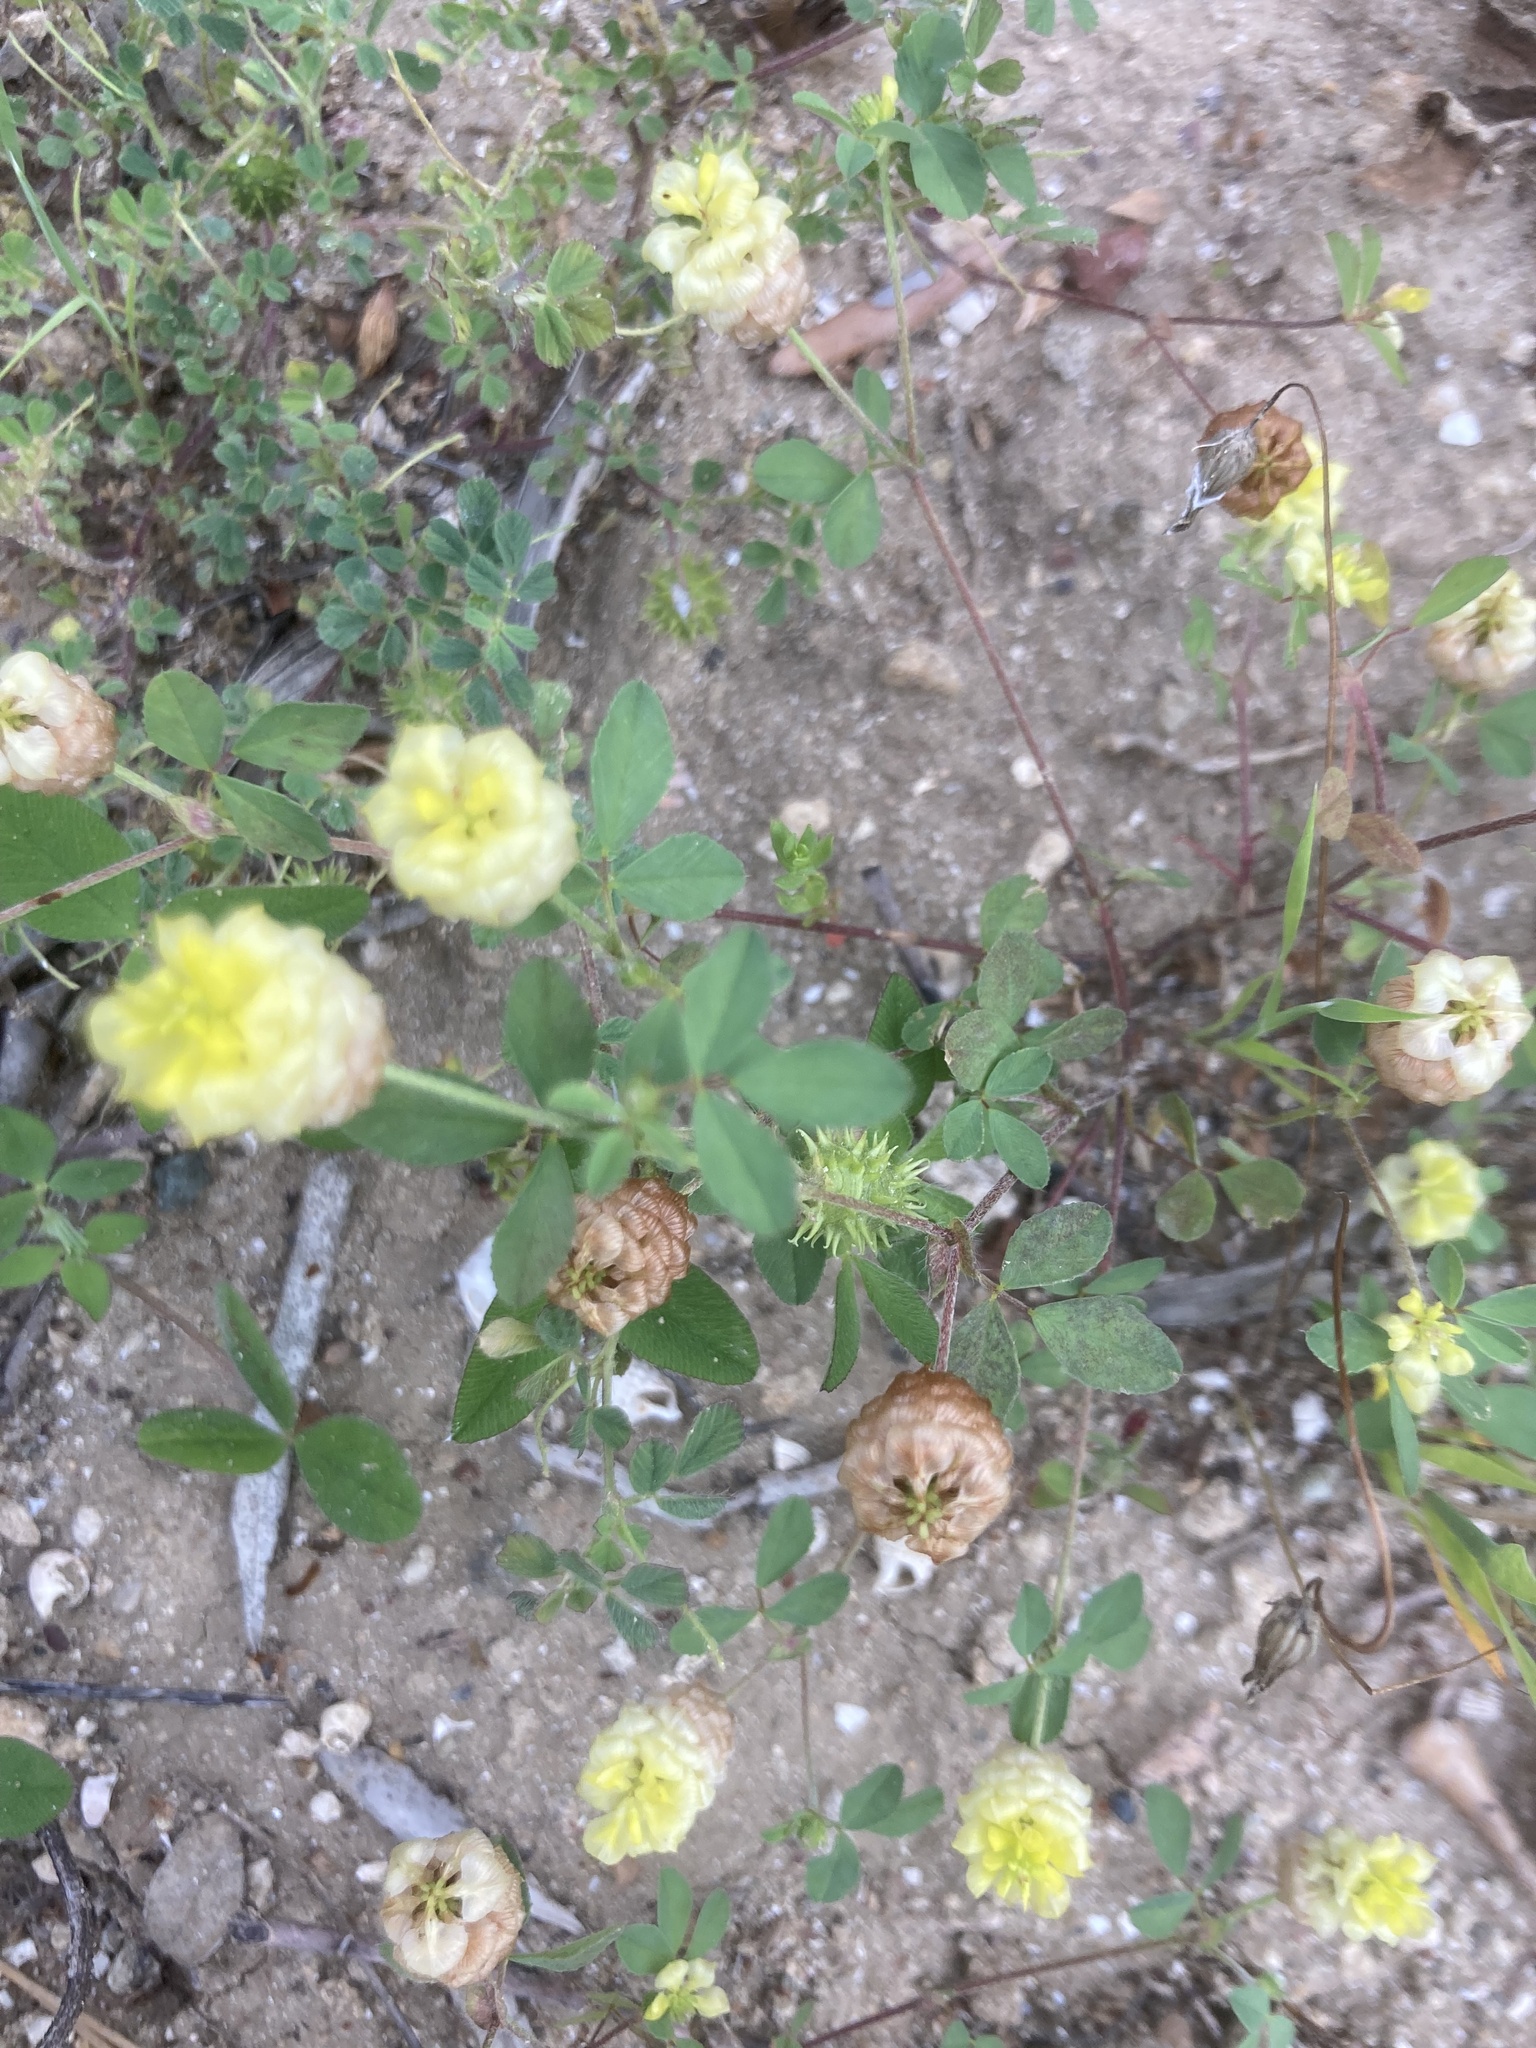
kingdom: Plantae
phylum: Tracheophyta
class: Magnoliopsida
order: Fabales
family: Fabaceae
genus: Trifolium
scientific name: Trifolium campestre
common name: Field clover
